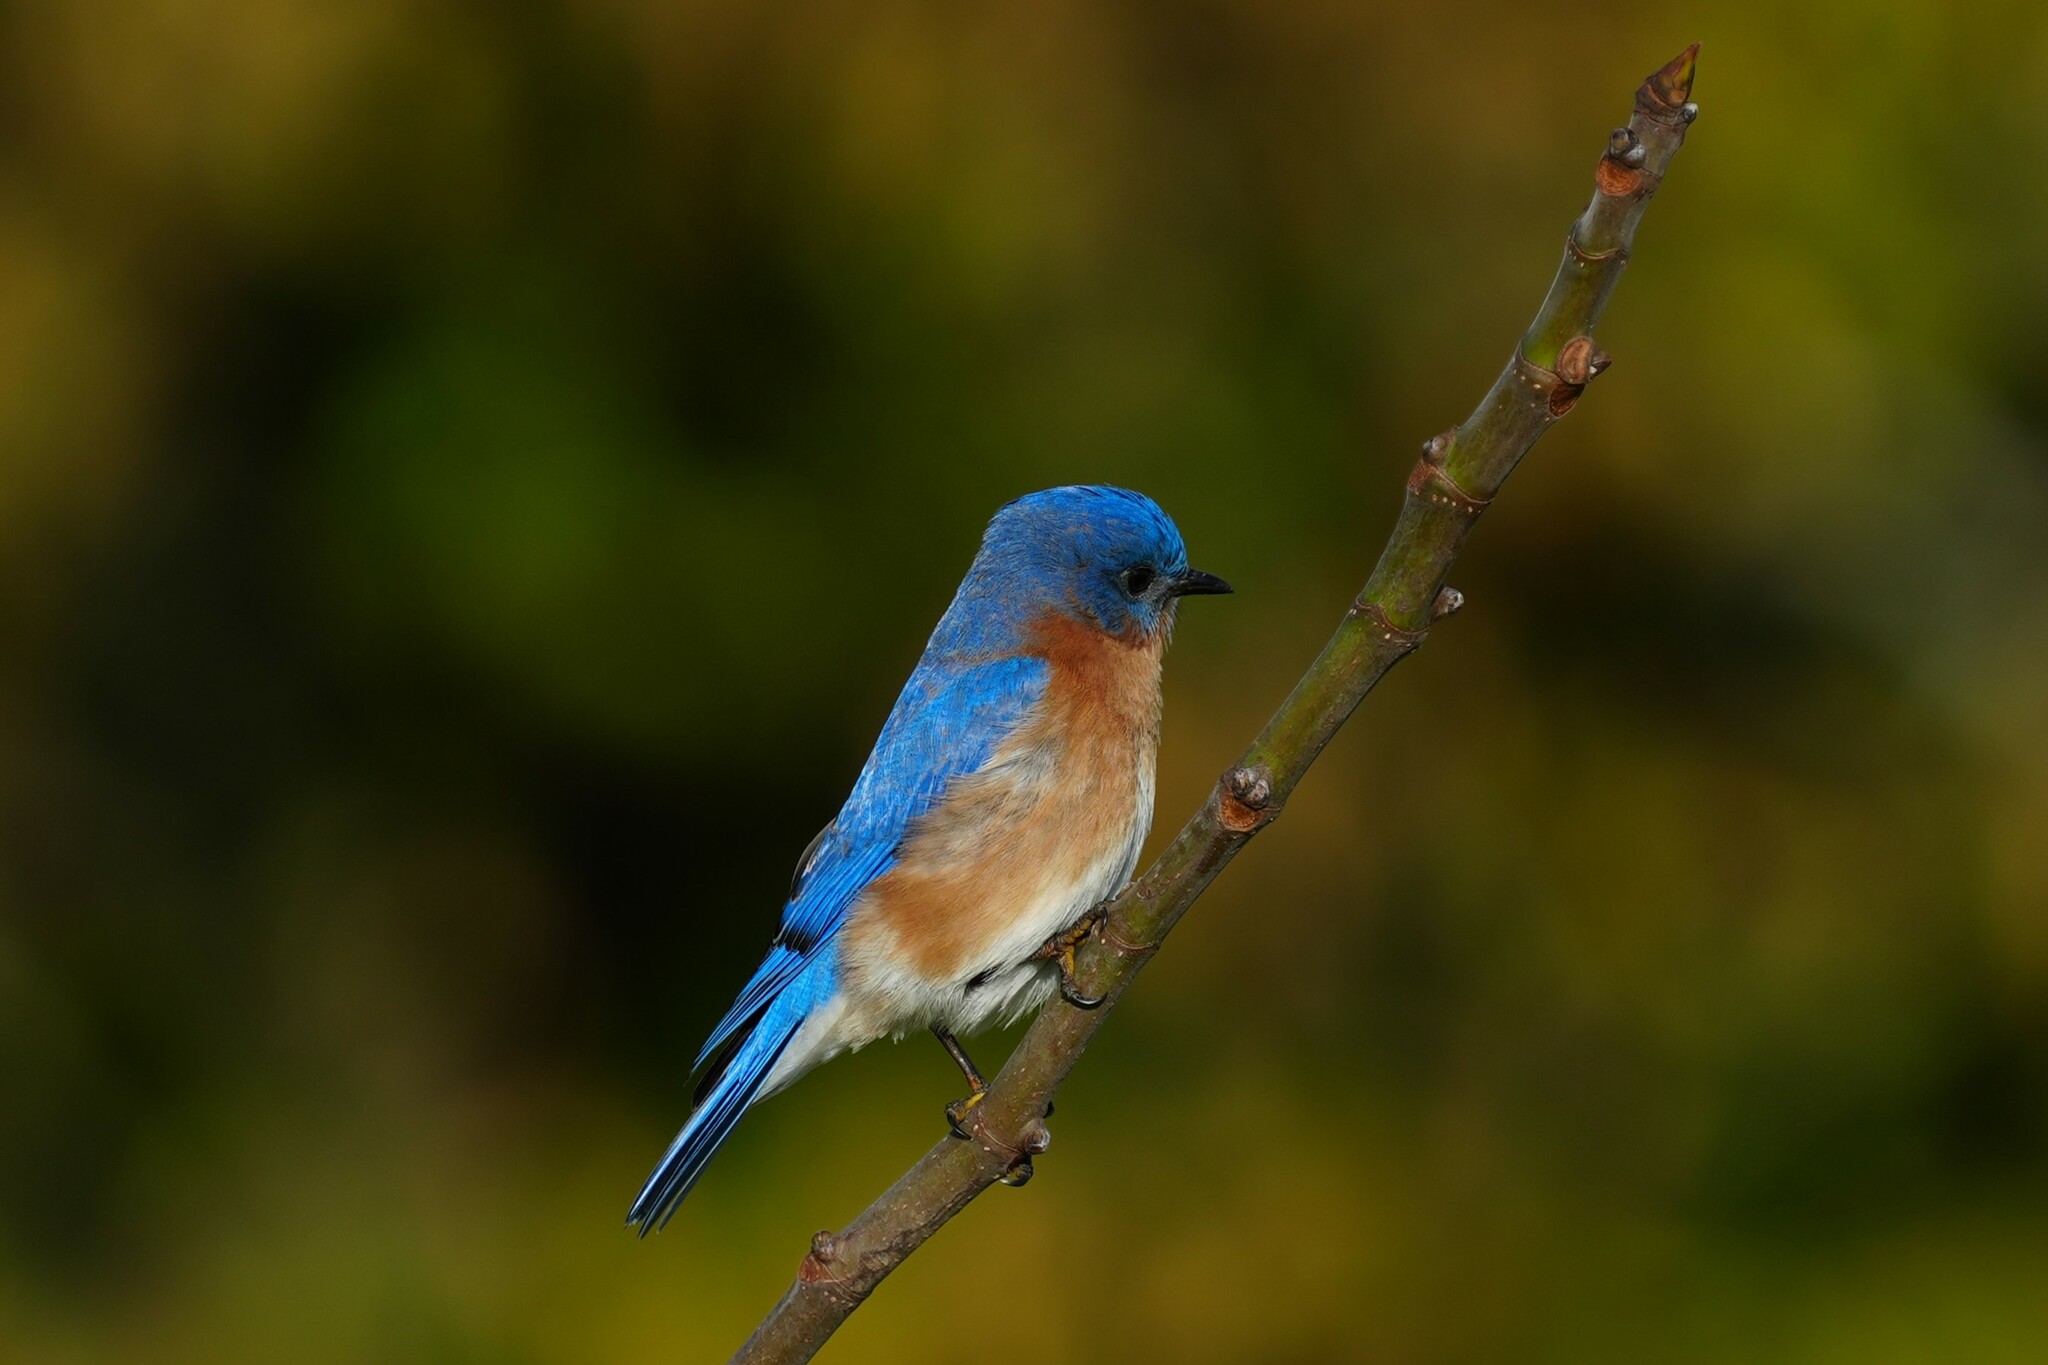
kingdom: Animalia
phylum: Chordata
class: Aves
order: Passeriformes
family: Turdidae
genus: Sialia
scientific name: Sialia sialis
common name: Eastern bluebird
